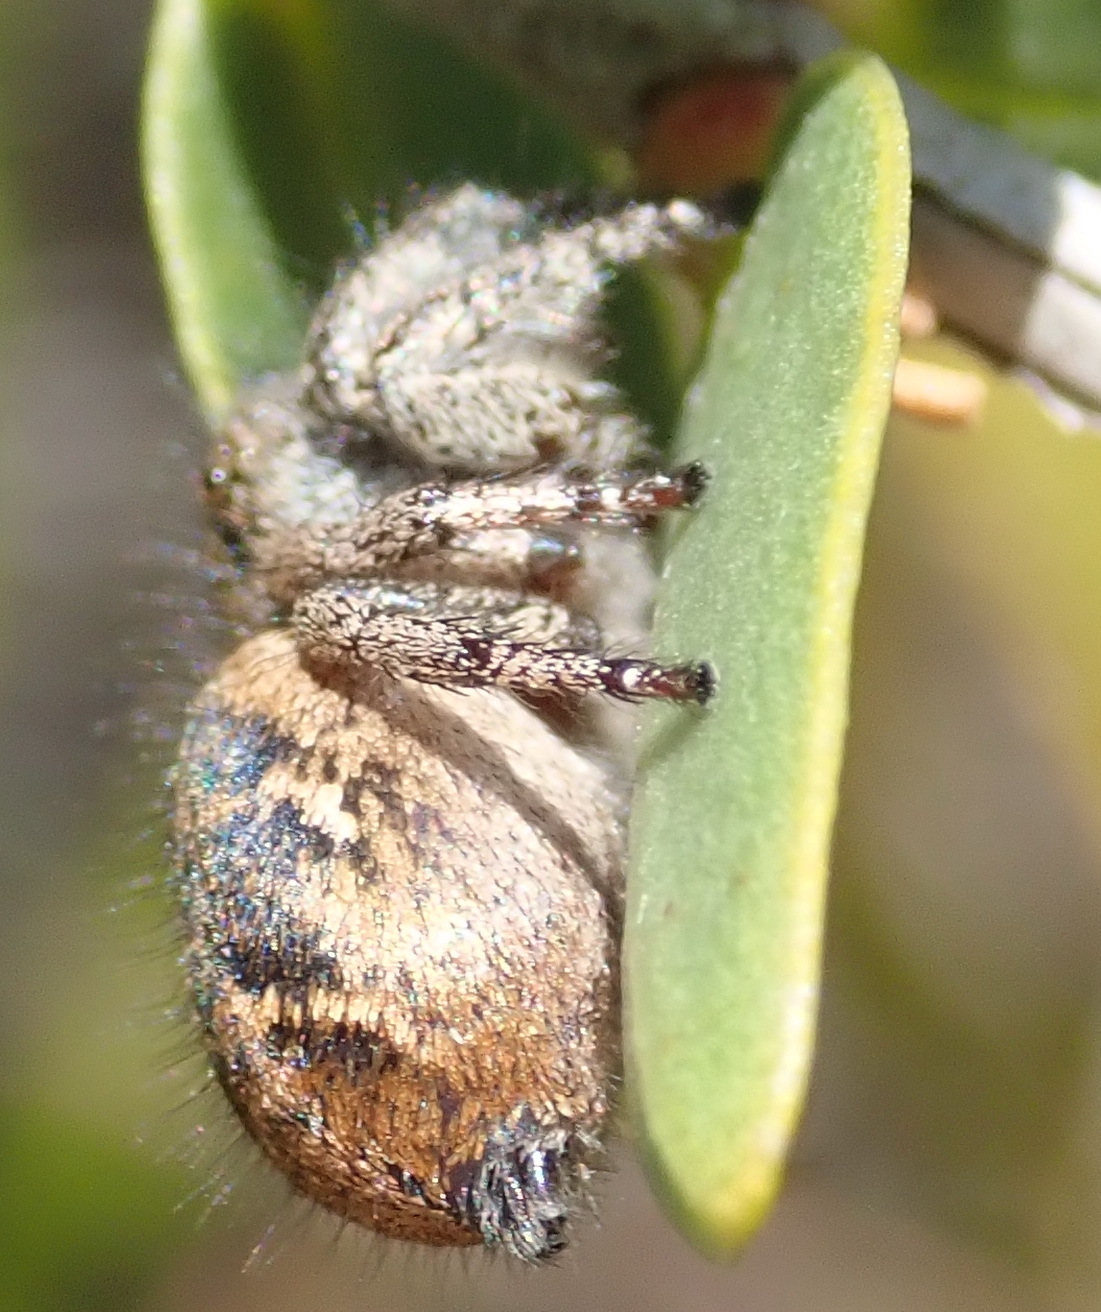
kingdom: Animalia
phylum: Arthropoda
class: Arachnida
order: Araneae
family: Salticidae
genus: Baryphas
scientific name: Baryphas ahenus
